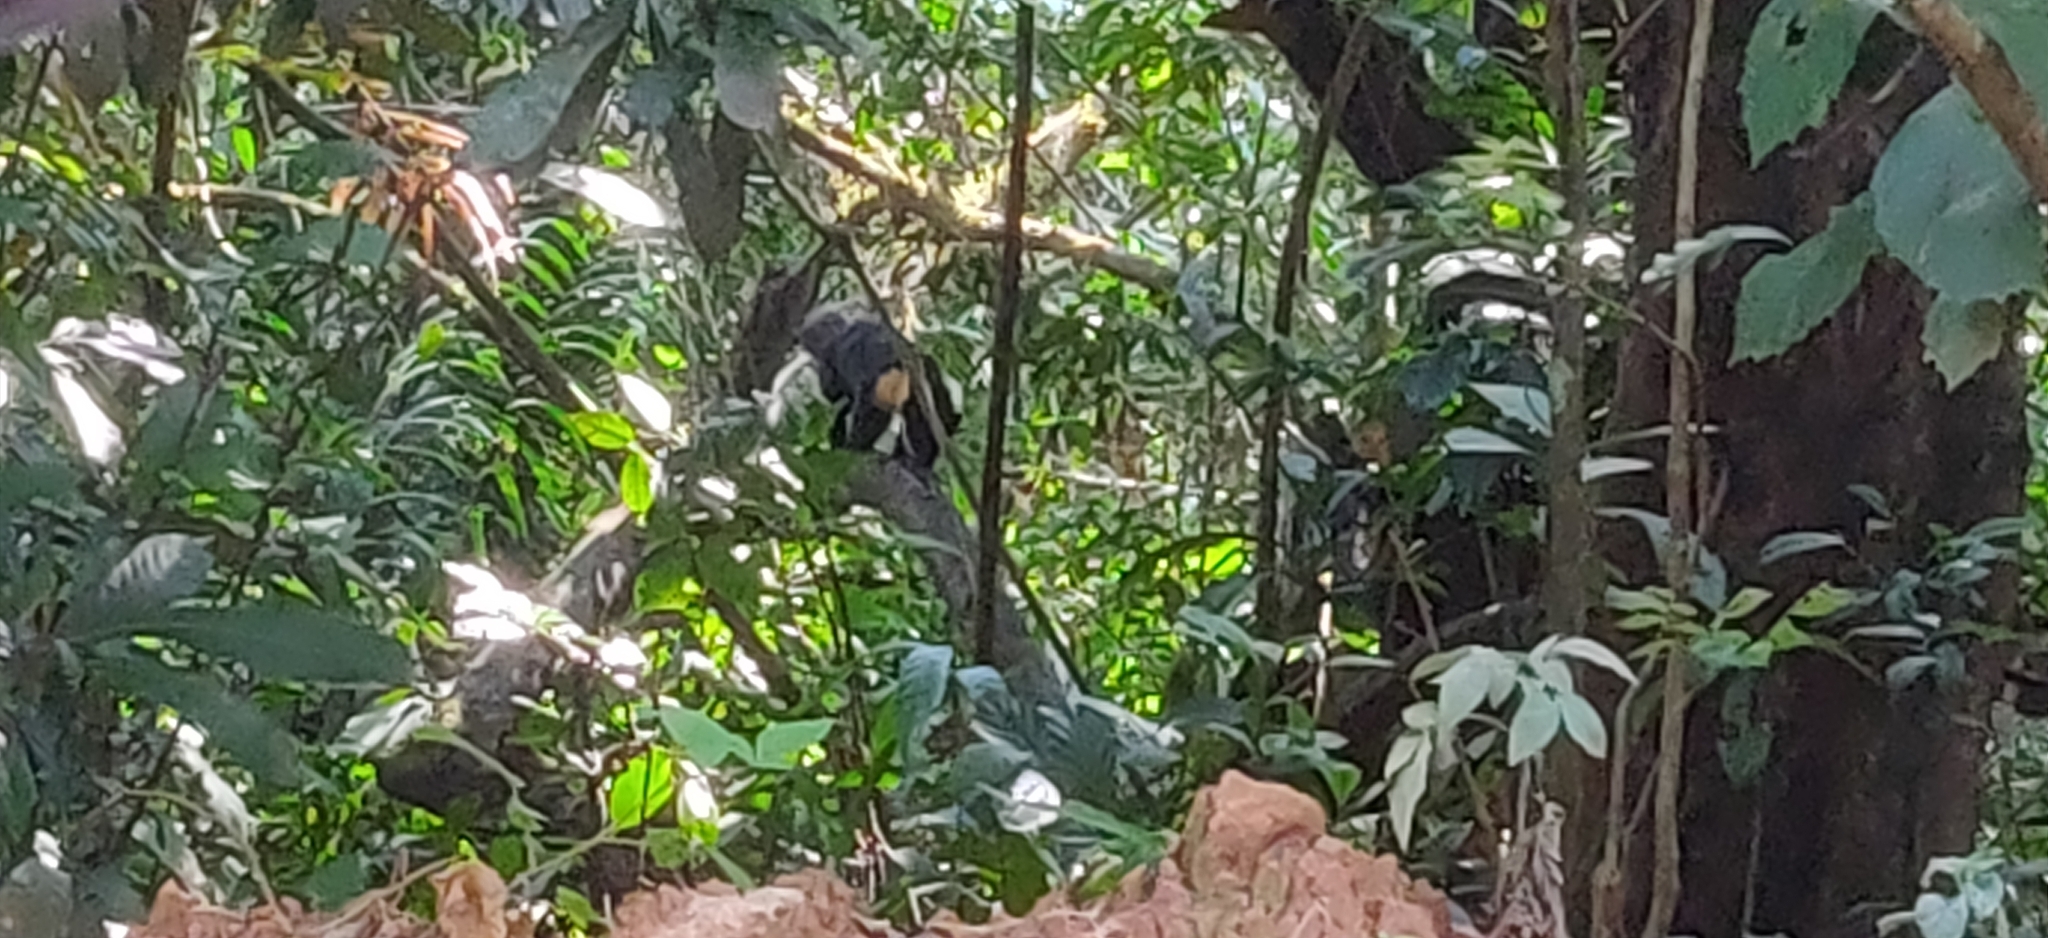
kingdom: Animalia
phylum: Chordata
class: Mammalia
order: Carnivora
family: Mustelidae
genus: Martes
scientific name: Martes gwatkinsii
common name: Nilgiri marten
